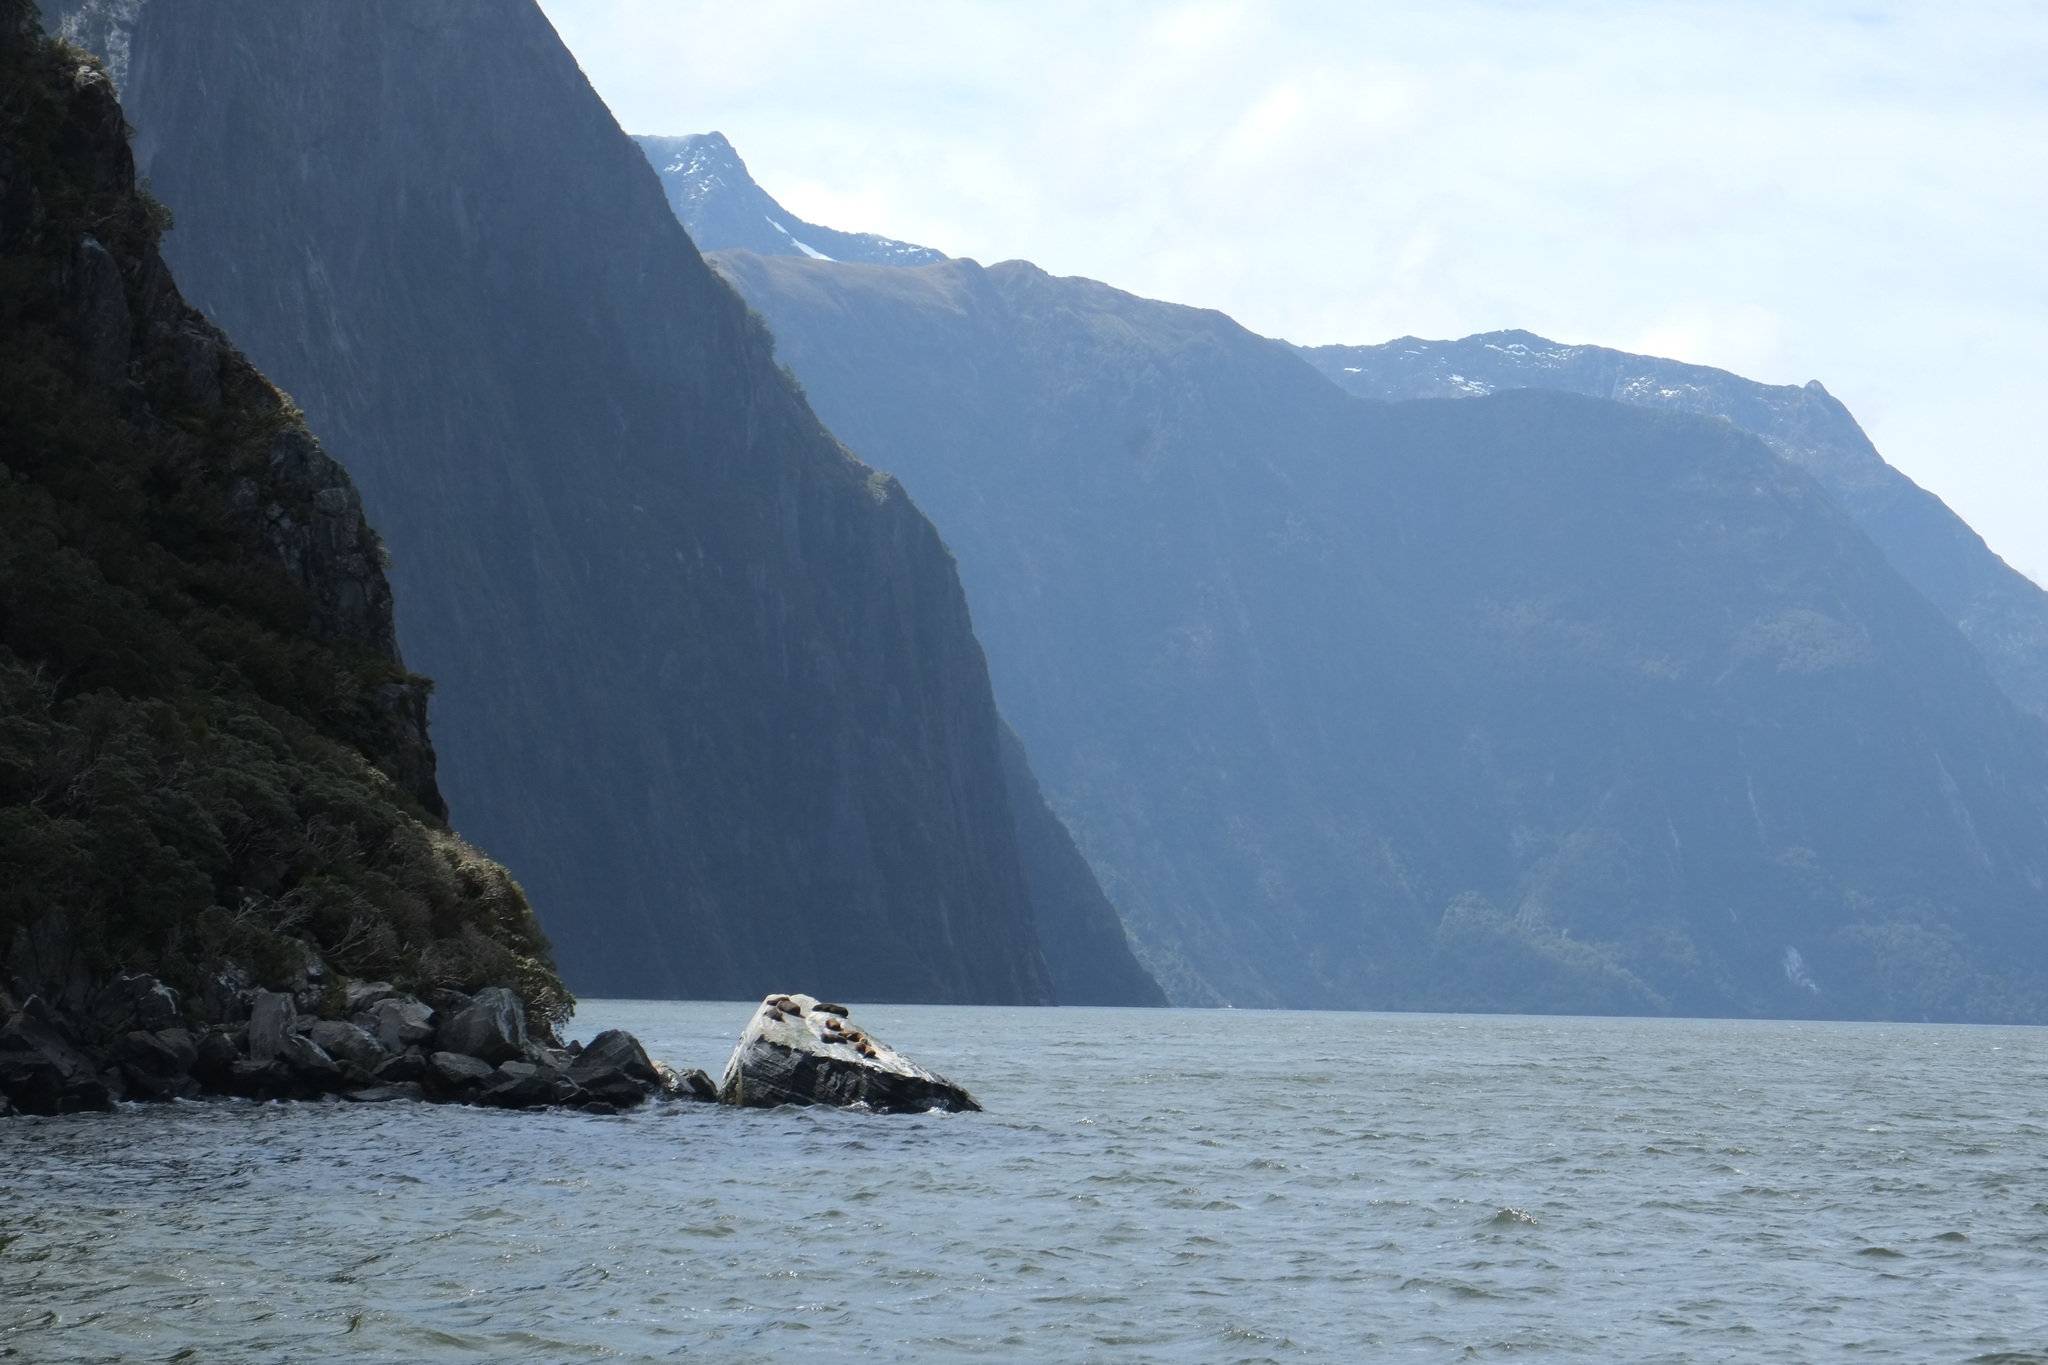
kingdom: Animalia
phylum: Chordata
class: Mammalia
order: Carnivora
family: Otariidae
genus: Arctocephalus
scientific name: Arctocephalus forsteri
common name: New zealand fur seal
